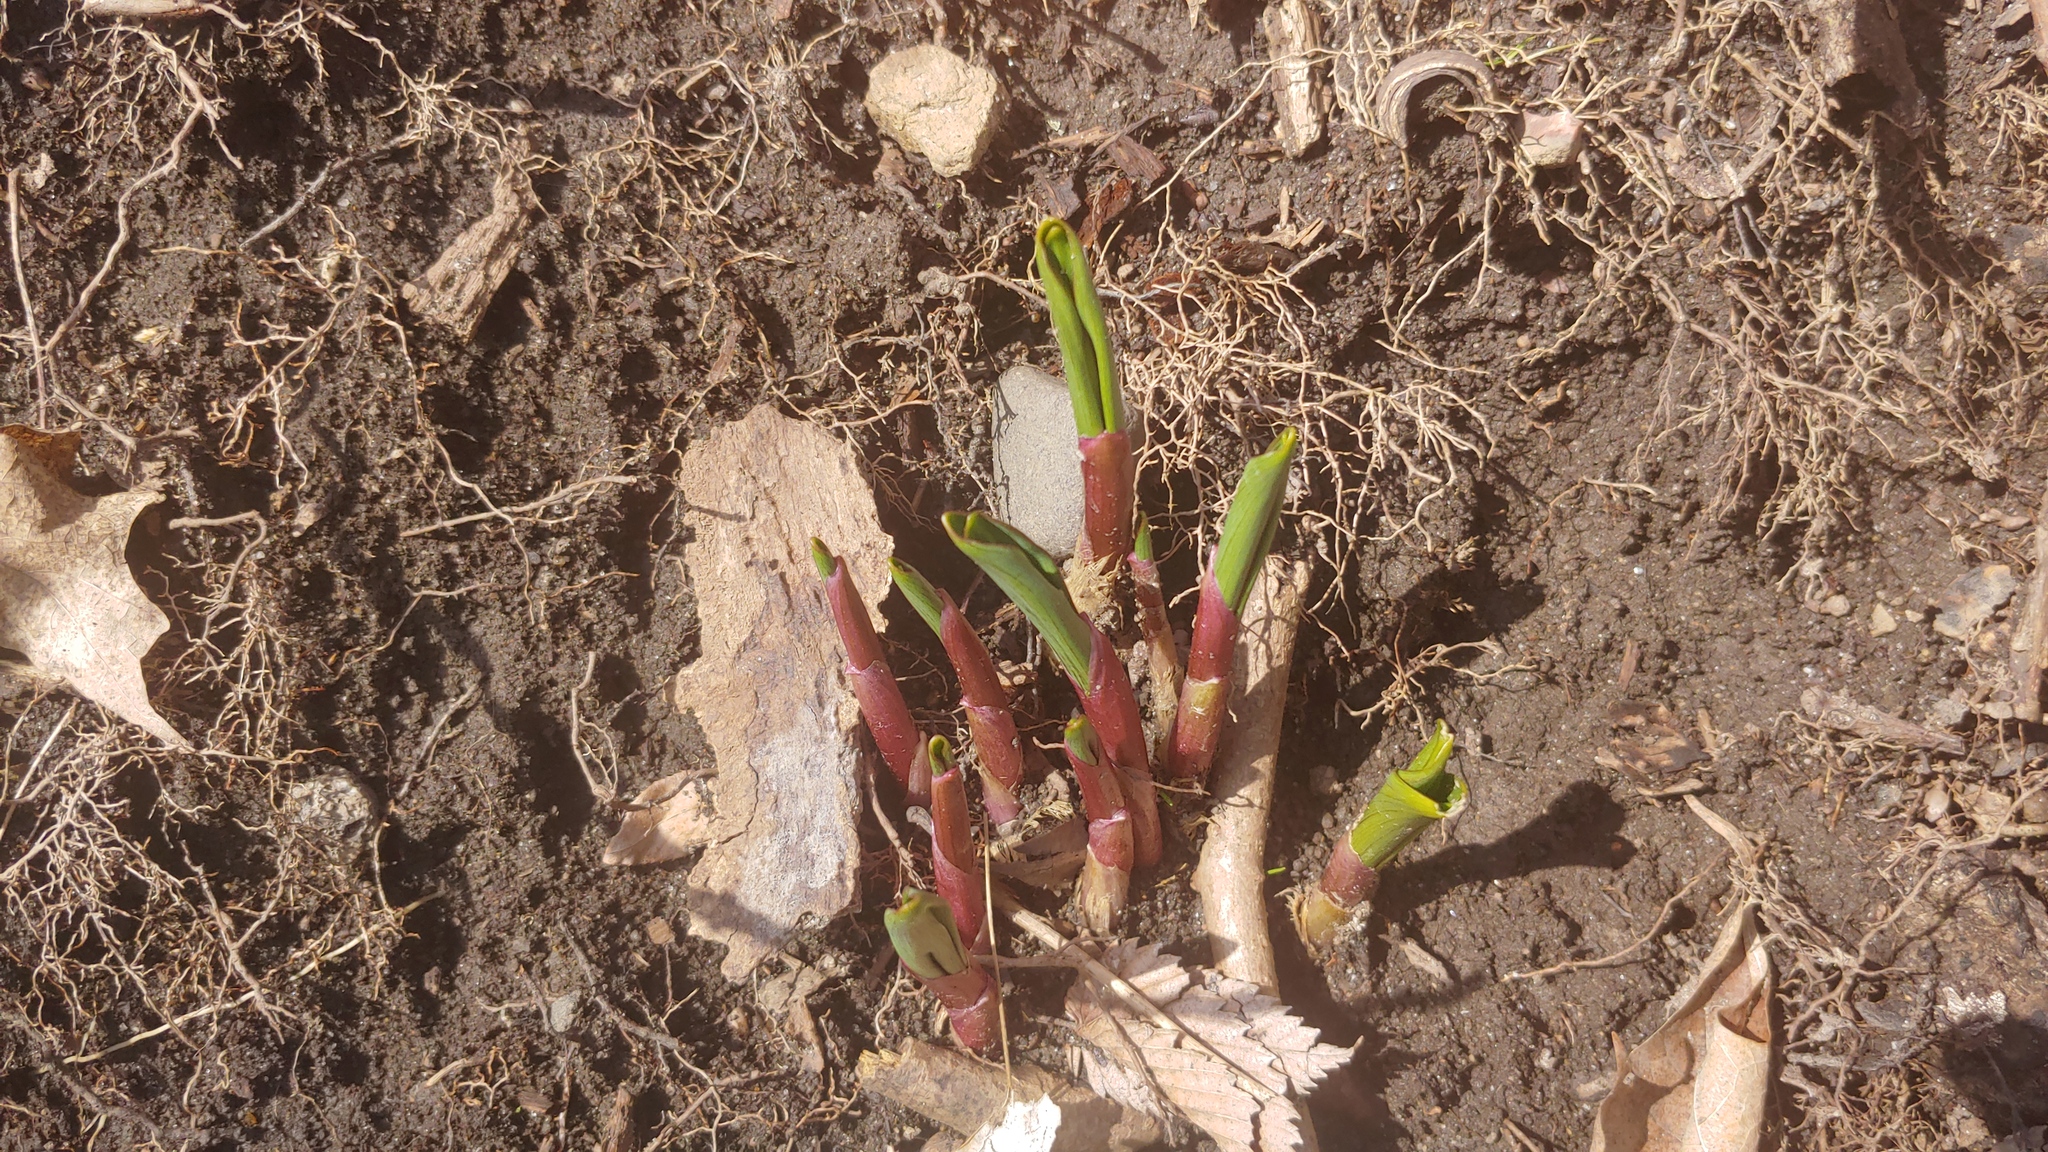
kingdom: Plantae
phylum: Tracheophyta
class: Liliopsida
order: Asparagales
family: Amaryllidaceae
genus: Allium
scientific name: Allium tricoccum
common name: Ramp
